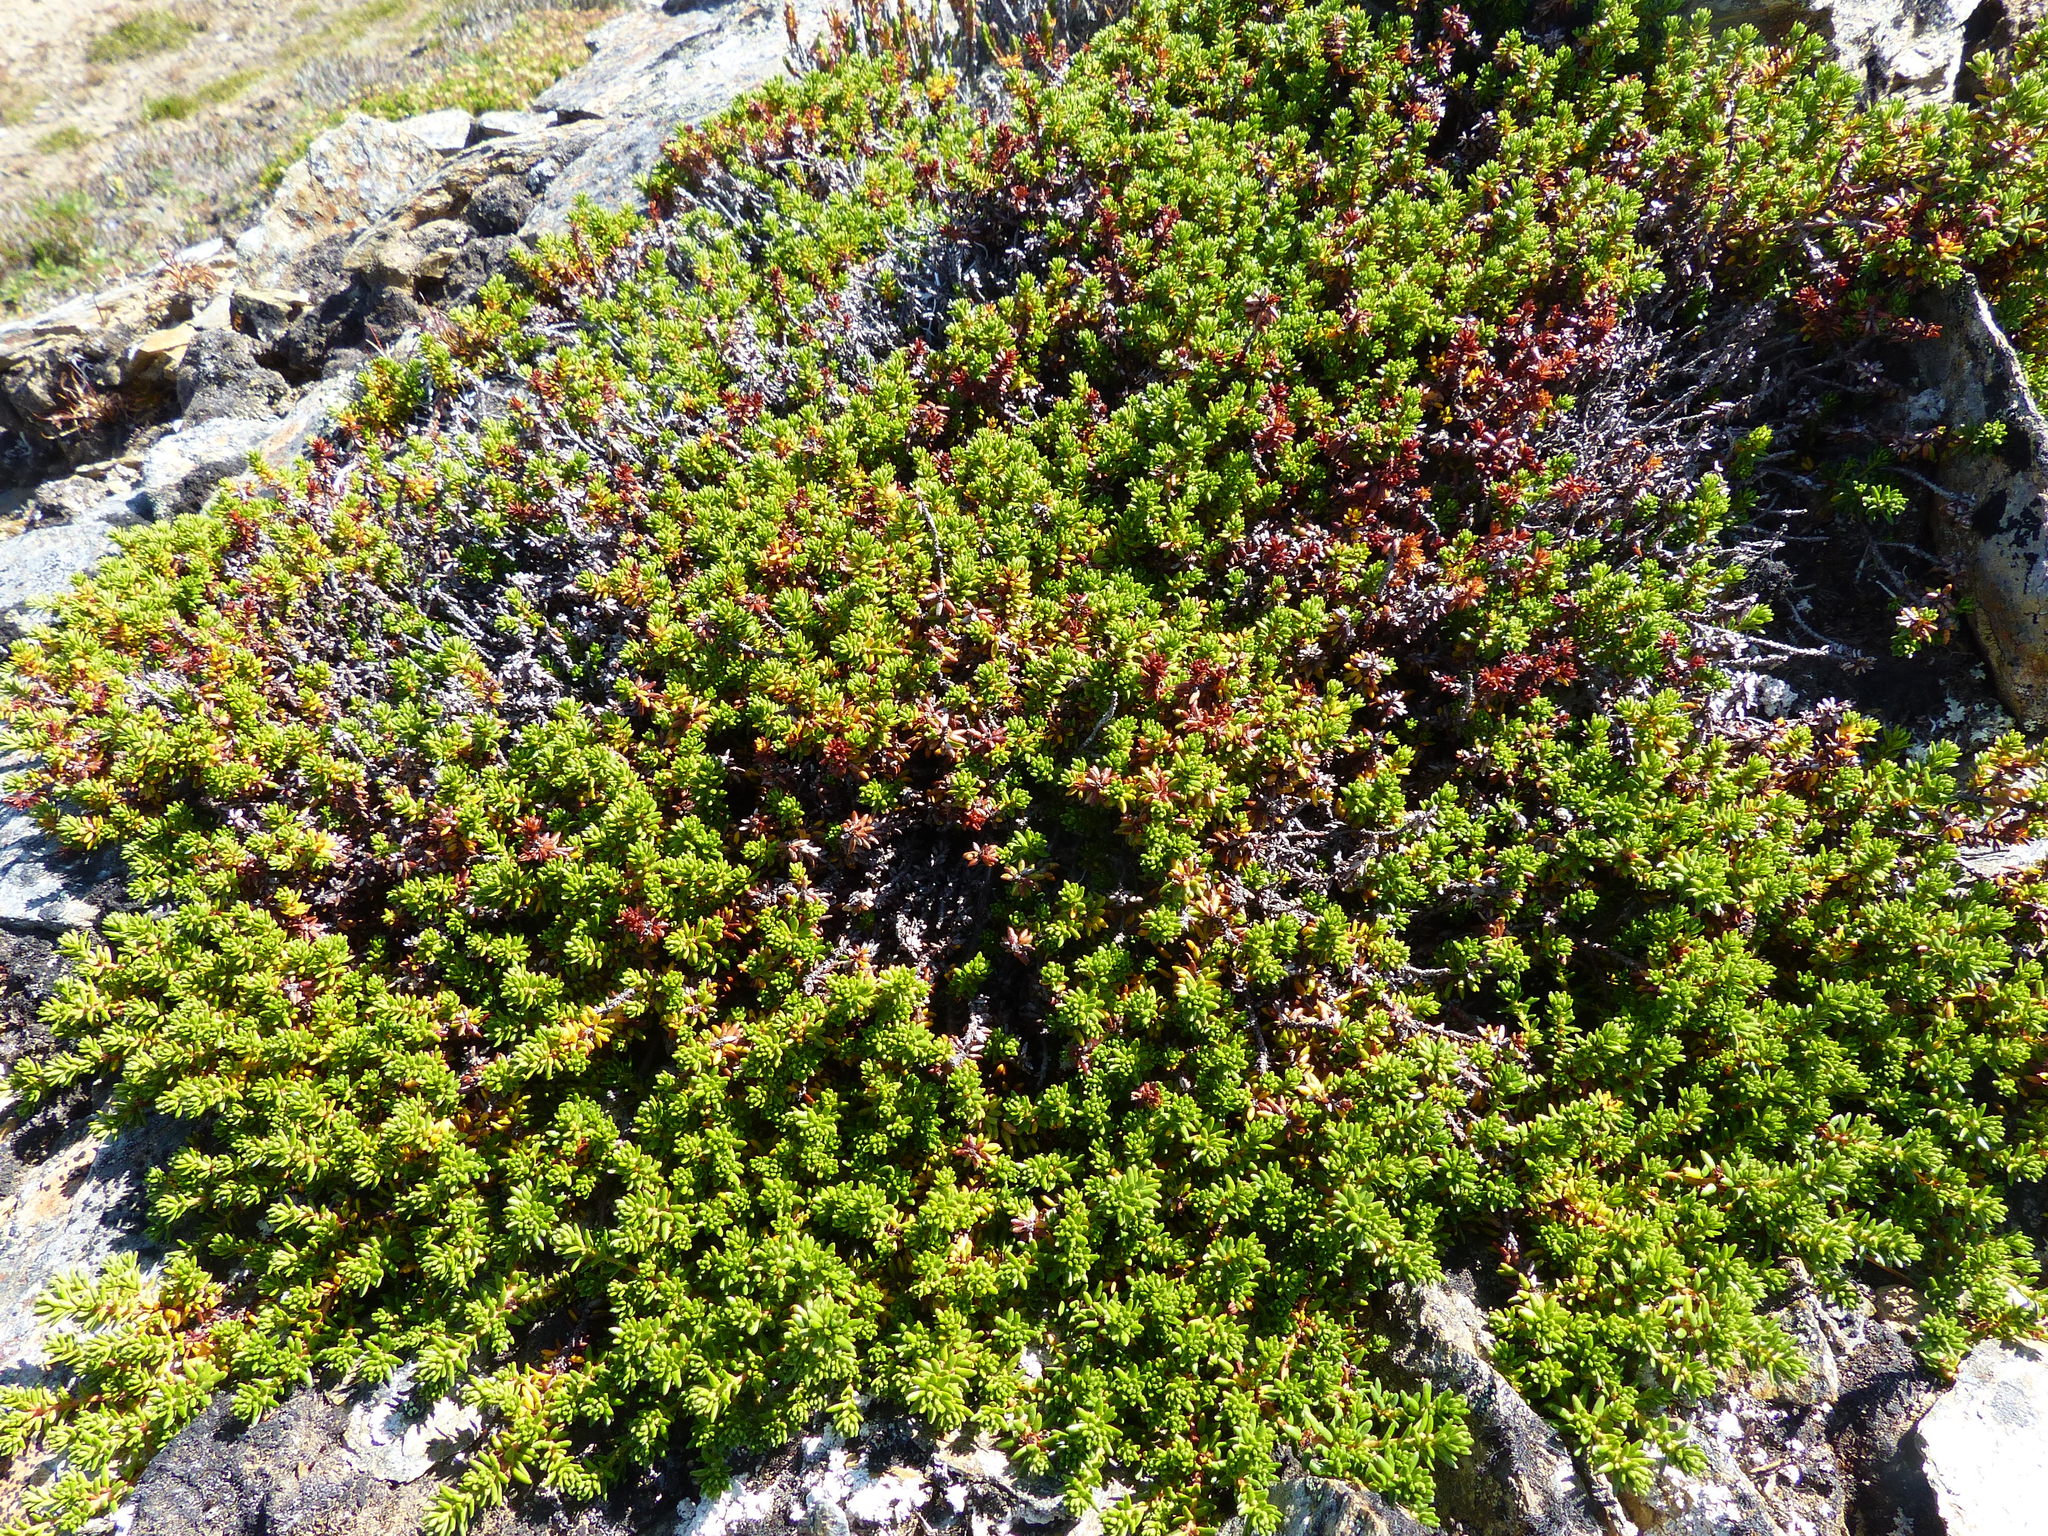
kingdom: Plantae
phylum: Tracheophyta
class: Magnoliopsida
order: Ericales
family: Ericaceae
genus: Empetrum
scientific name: Empetrum nigrum
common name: Black crowberry
